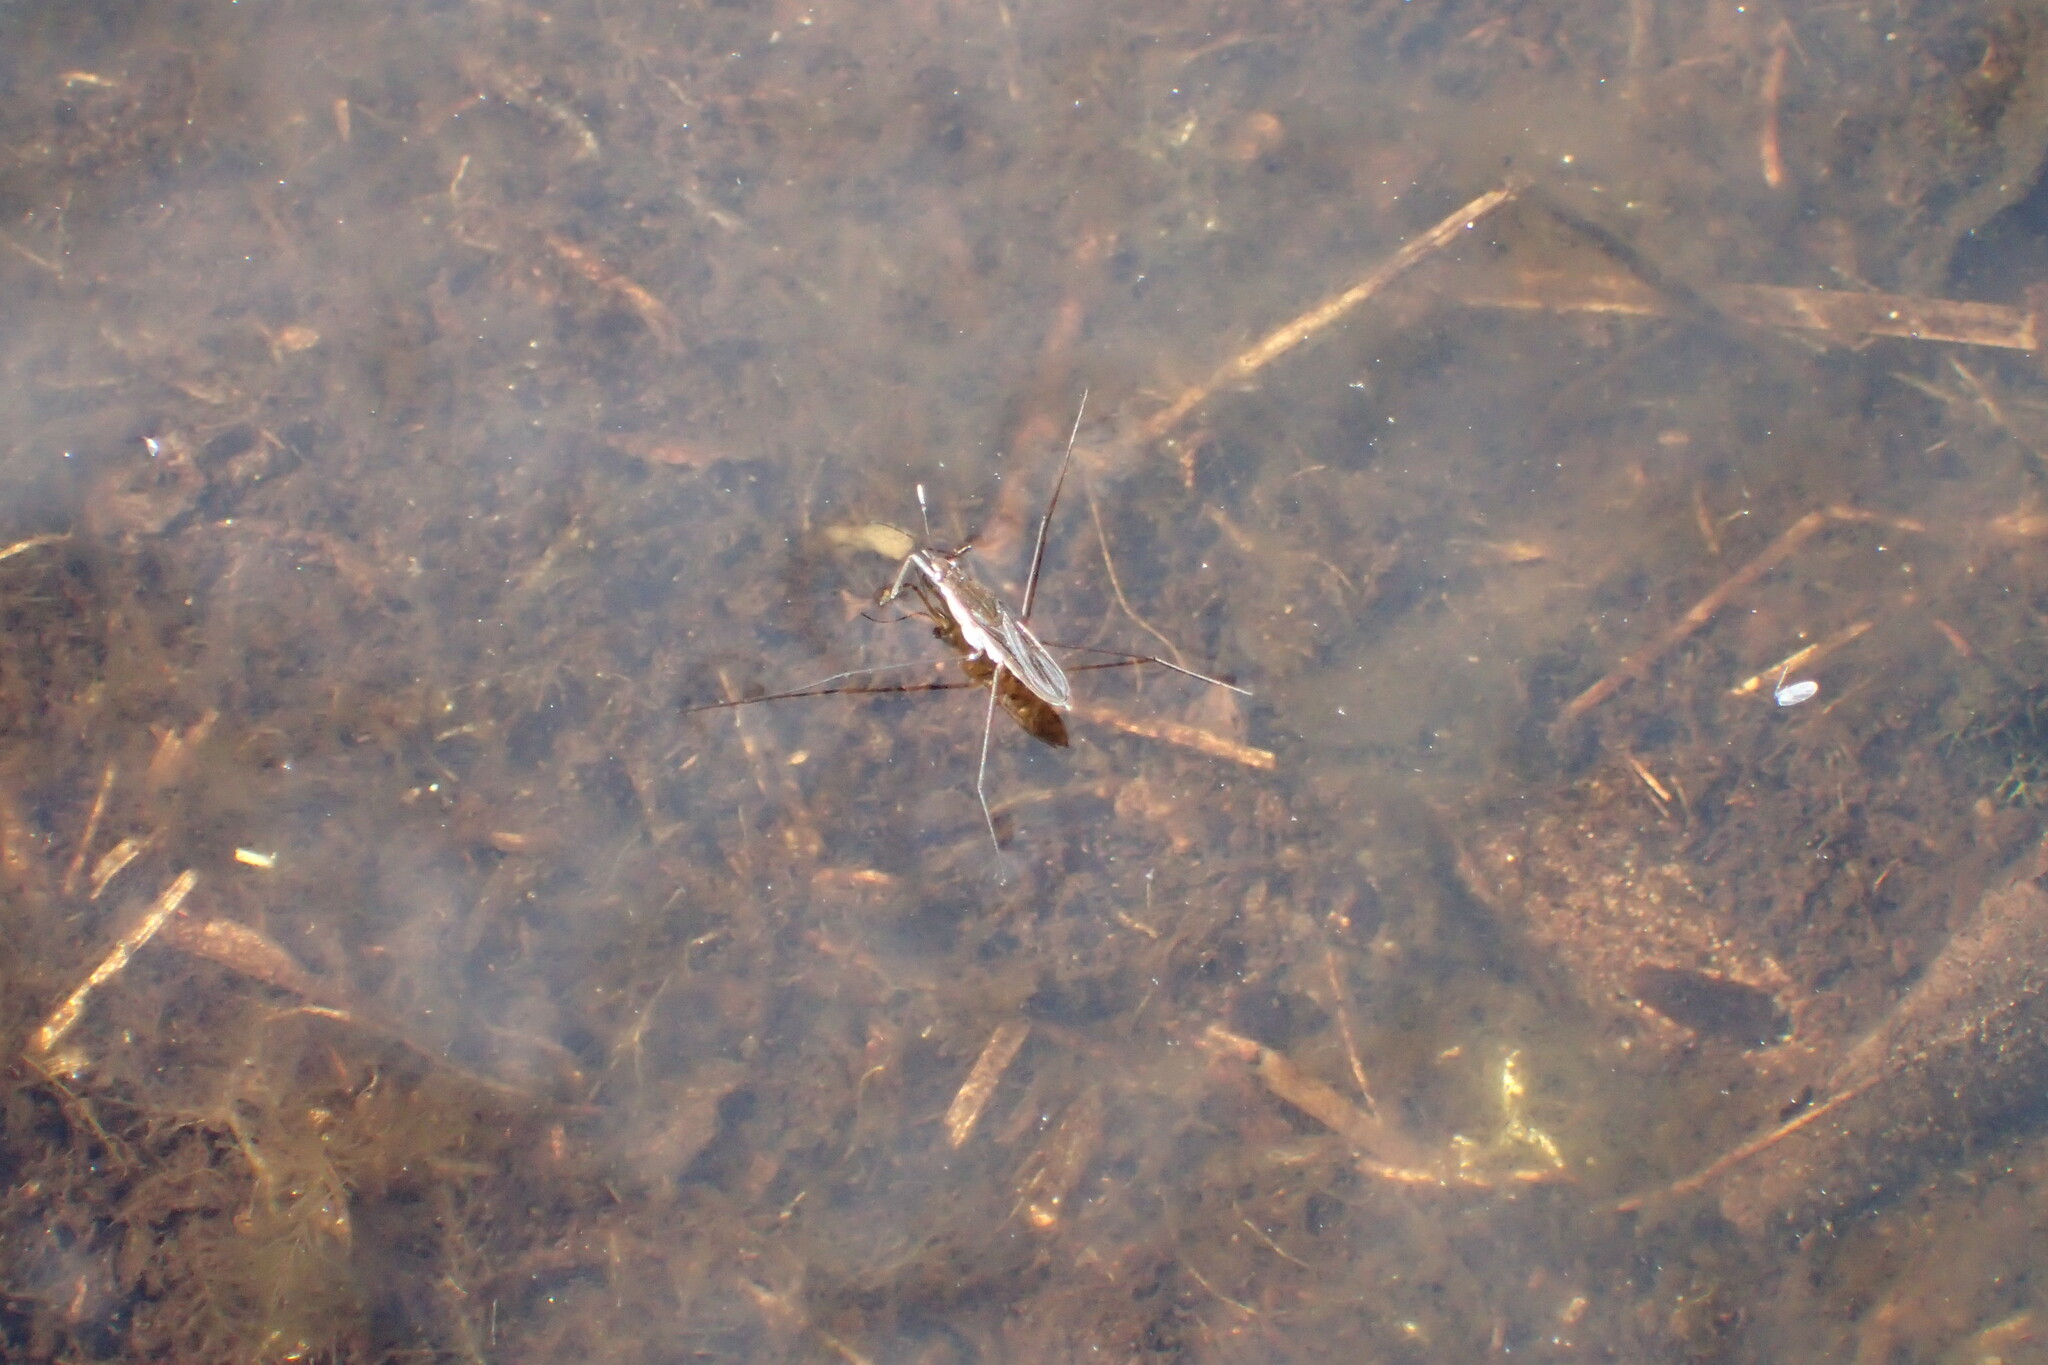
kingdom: Animalia
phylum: Arthropoda
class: Insecta
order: Hemiptera
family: Gerridae
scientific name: Gerridae
